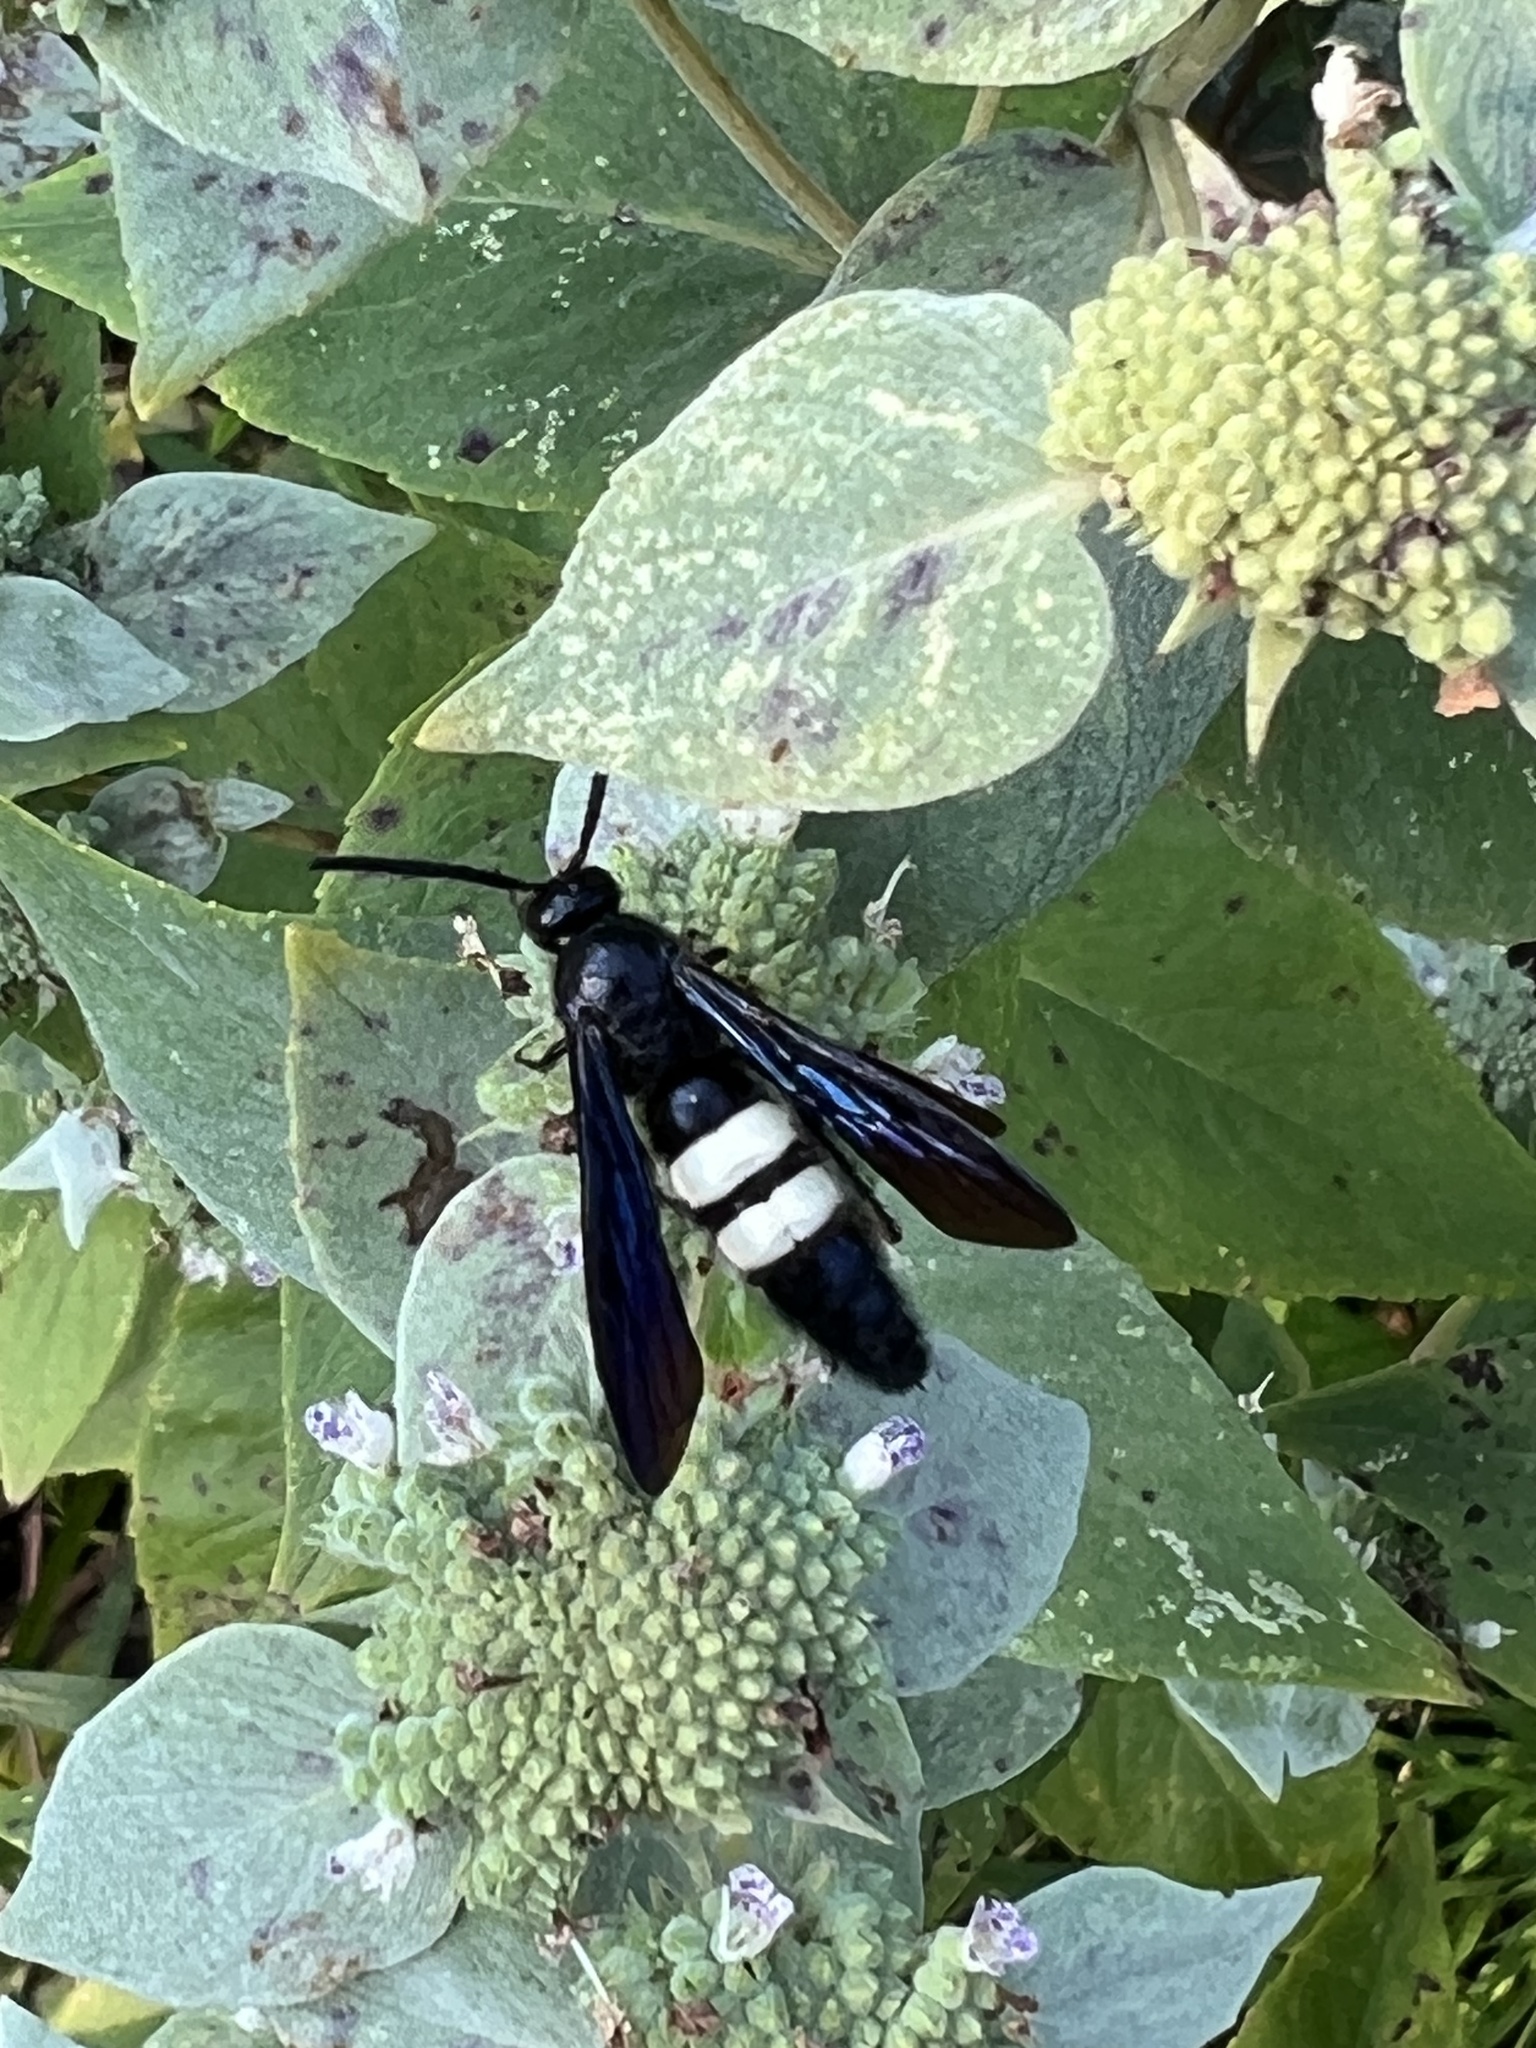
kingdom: Animalia
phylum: Arthropoda
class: Insecta
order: Hymenoptera
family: Scoliidae
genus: Scolia
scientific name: Scolia bicincta
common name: Double-banded scoliid wasp
